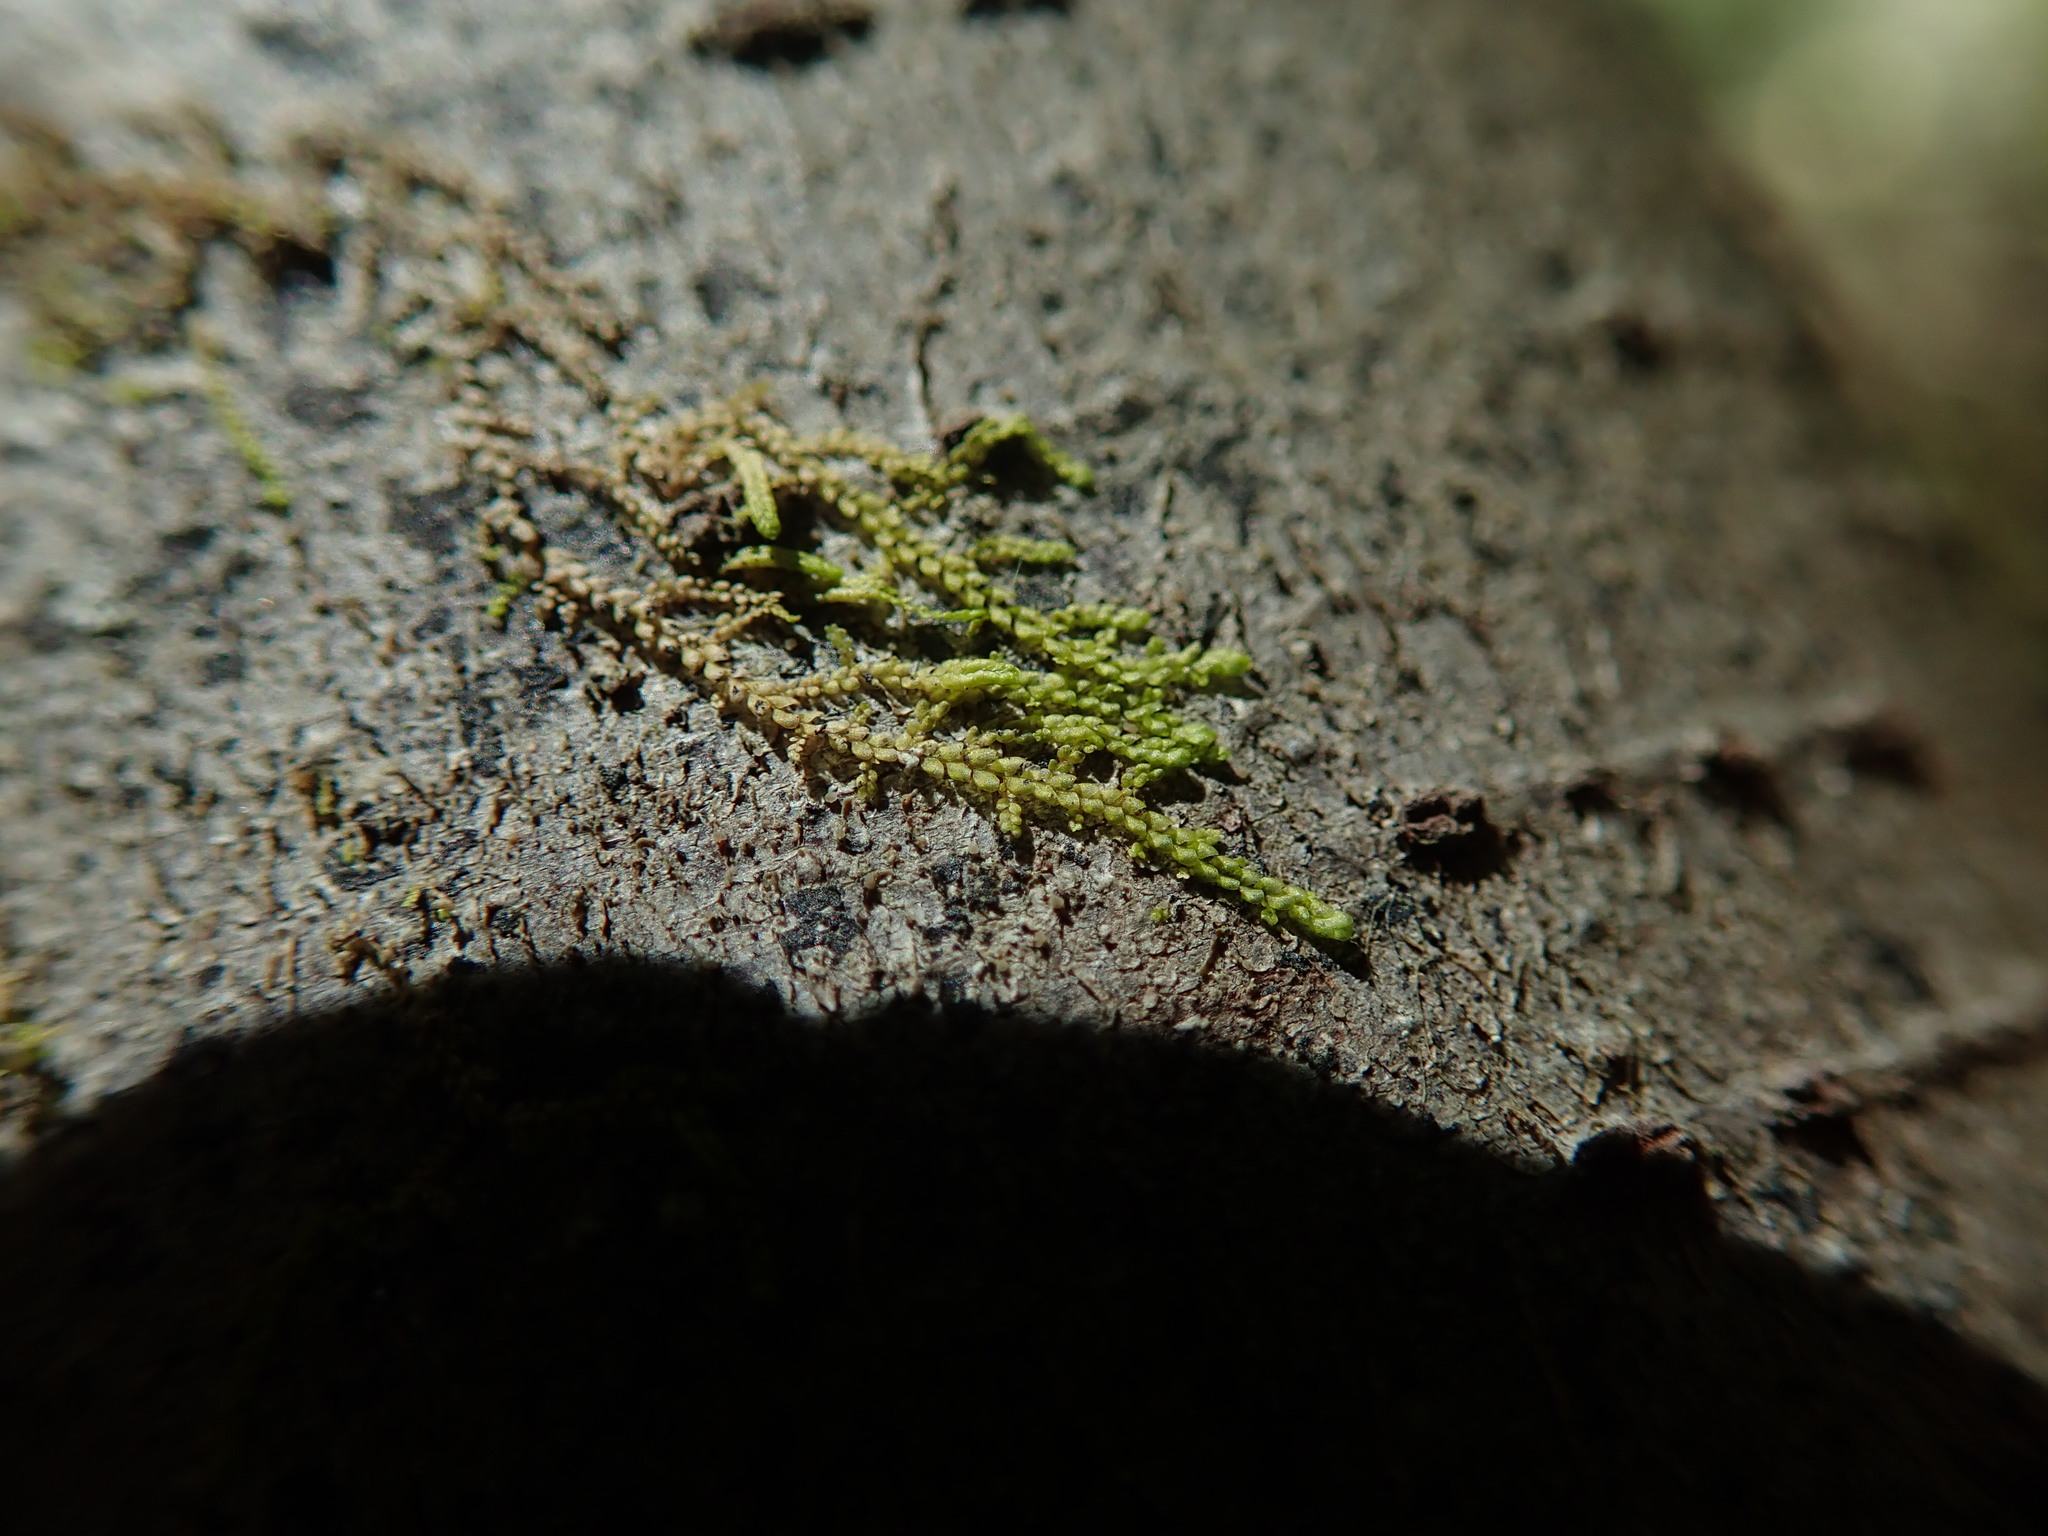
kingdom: Plantae
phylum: Marchantiophyta
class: Jungermanniopsida
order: Porellales
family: Radulaceae
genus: Radula
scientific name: Radula bolanderi
